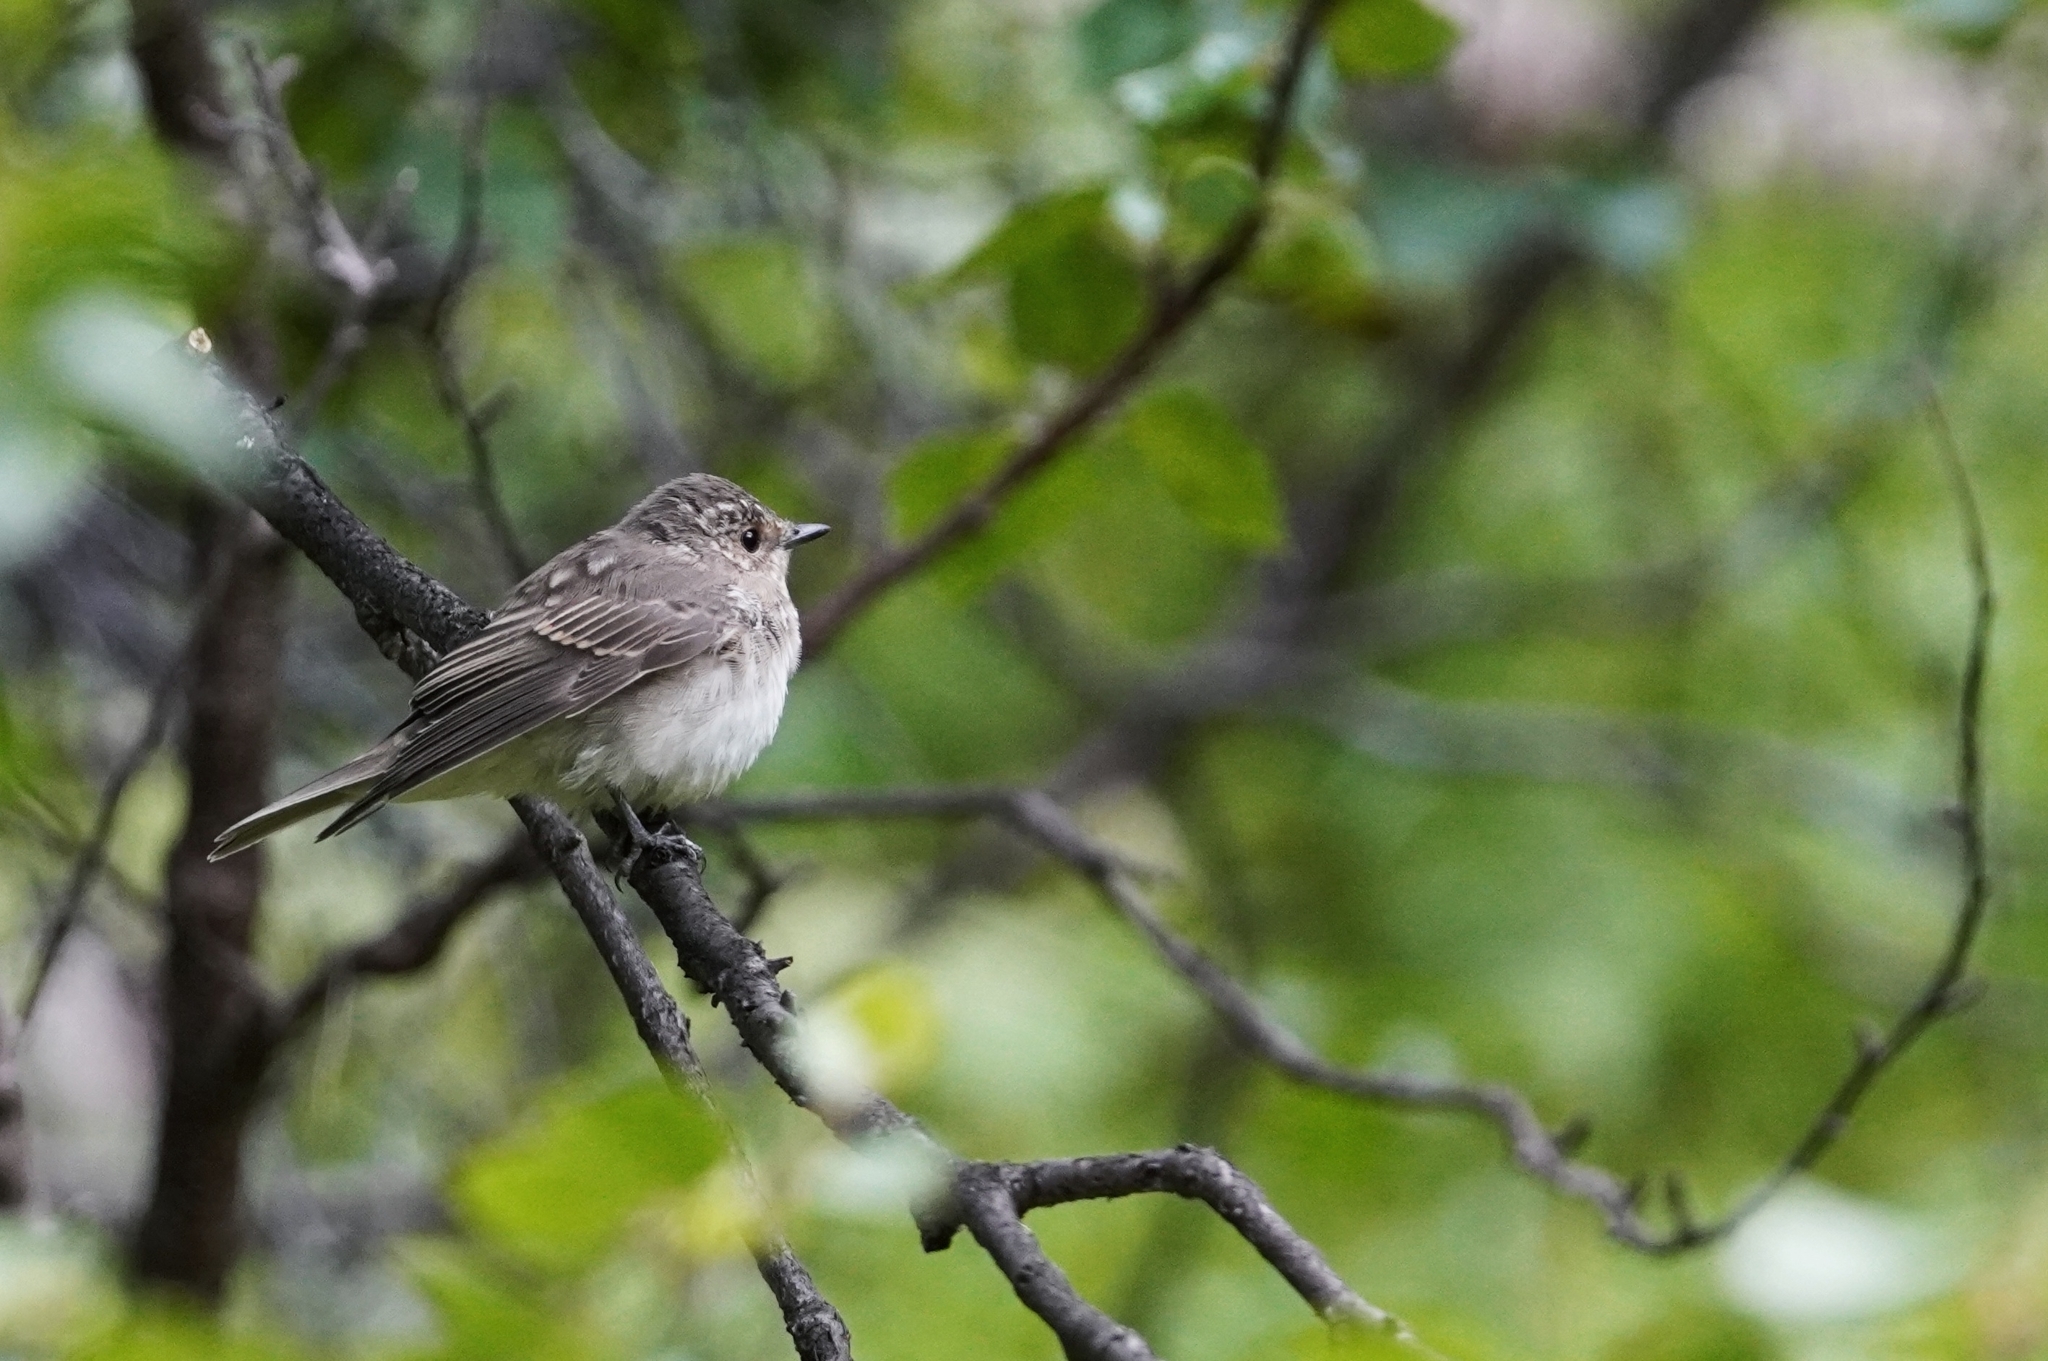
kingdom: Animalia
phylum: Chordata
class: Aves
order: Passeriformes
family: Muscicapidae
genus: Muscicapa
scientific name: Muscicapa striata
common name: Spotted flycatcher
